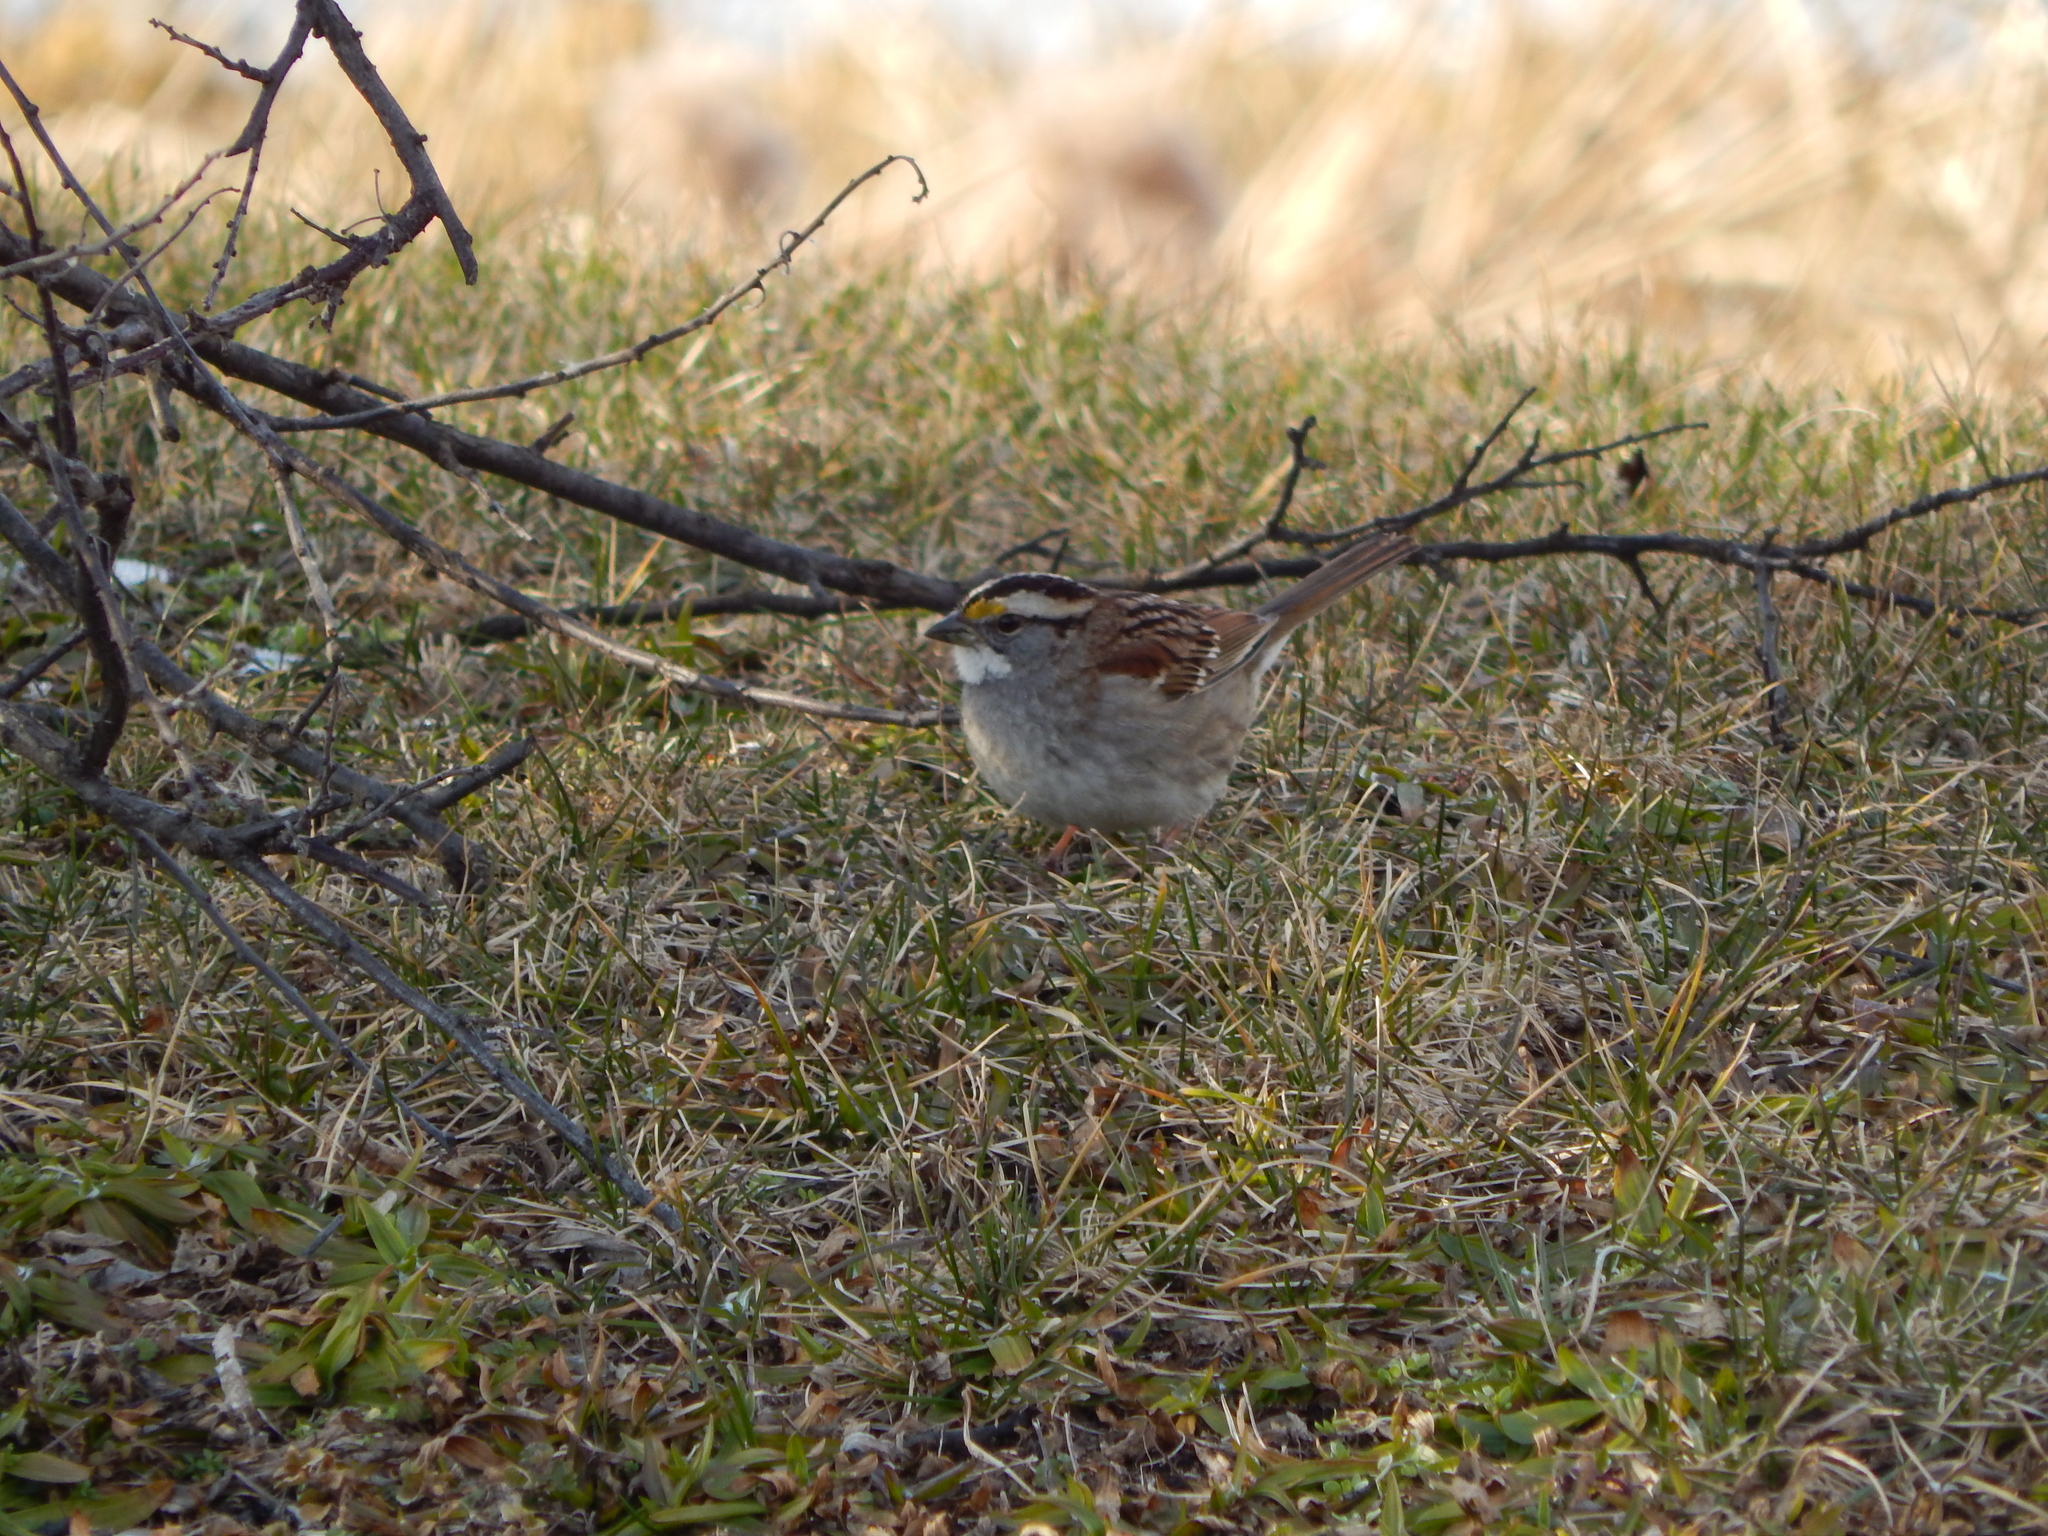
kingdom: Animalia
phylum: Chordata
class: Aves
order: Passeriformes
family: Passerellidae
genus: Zonotrichia
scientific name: Zonotrichia albicollis
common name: White-throated sparrow
